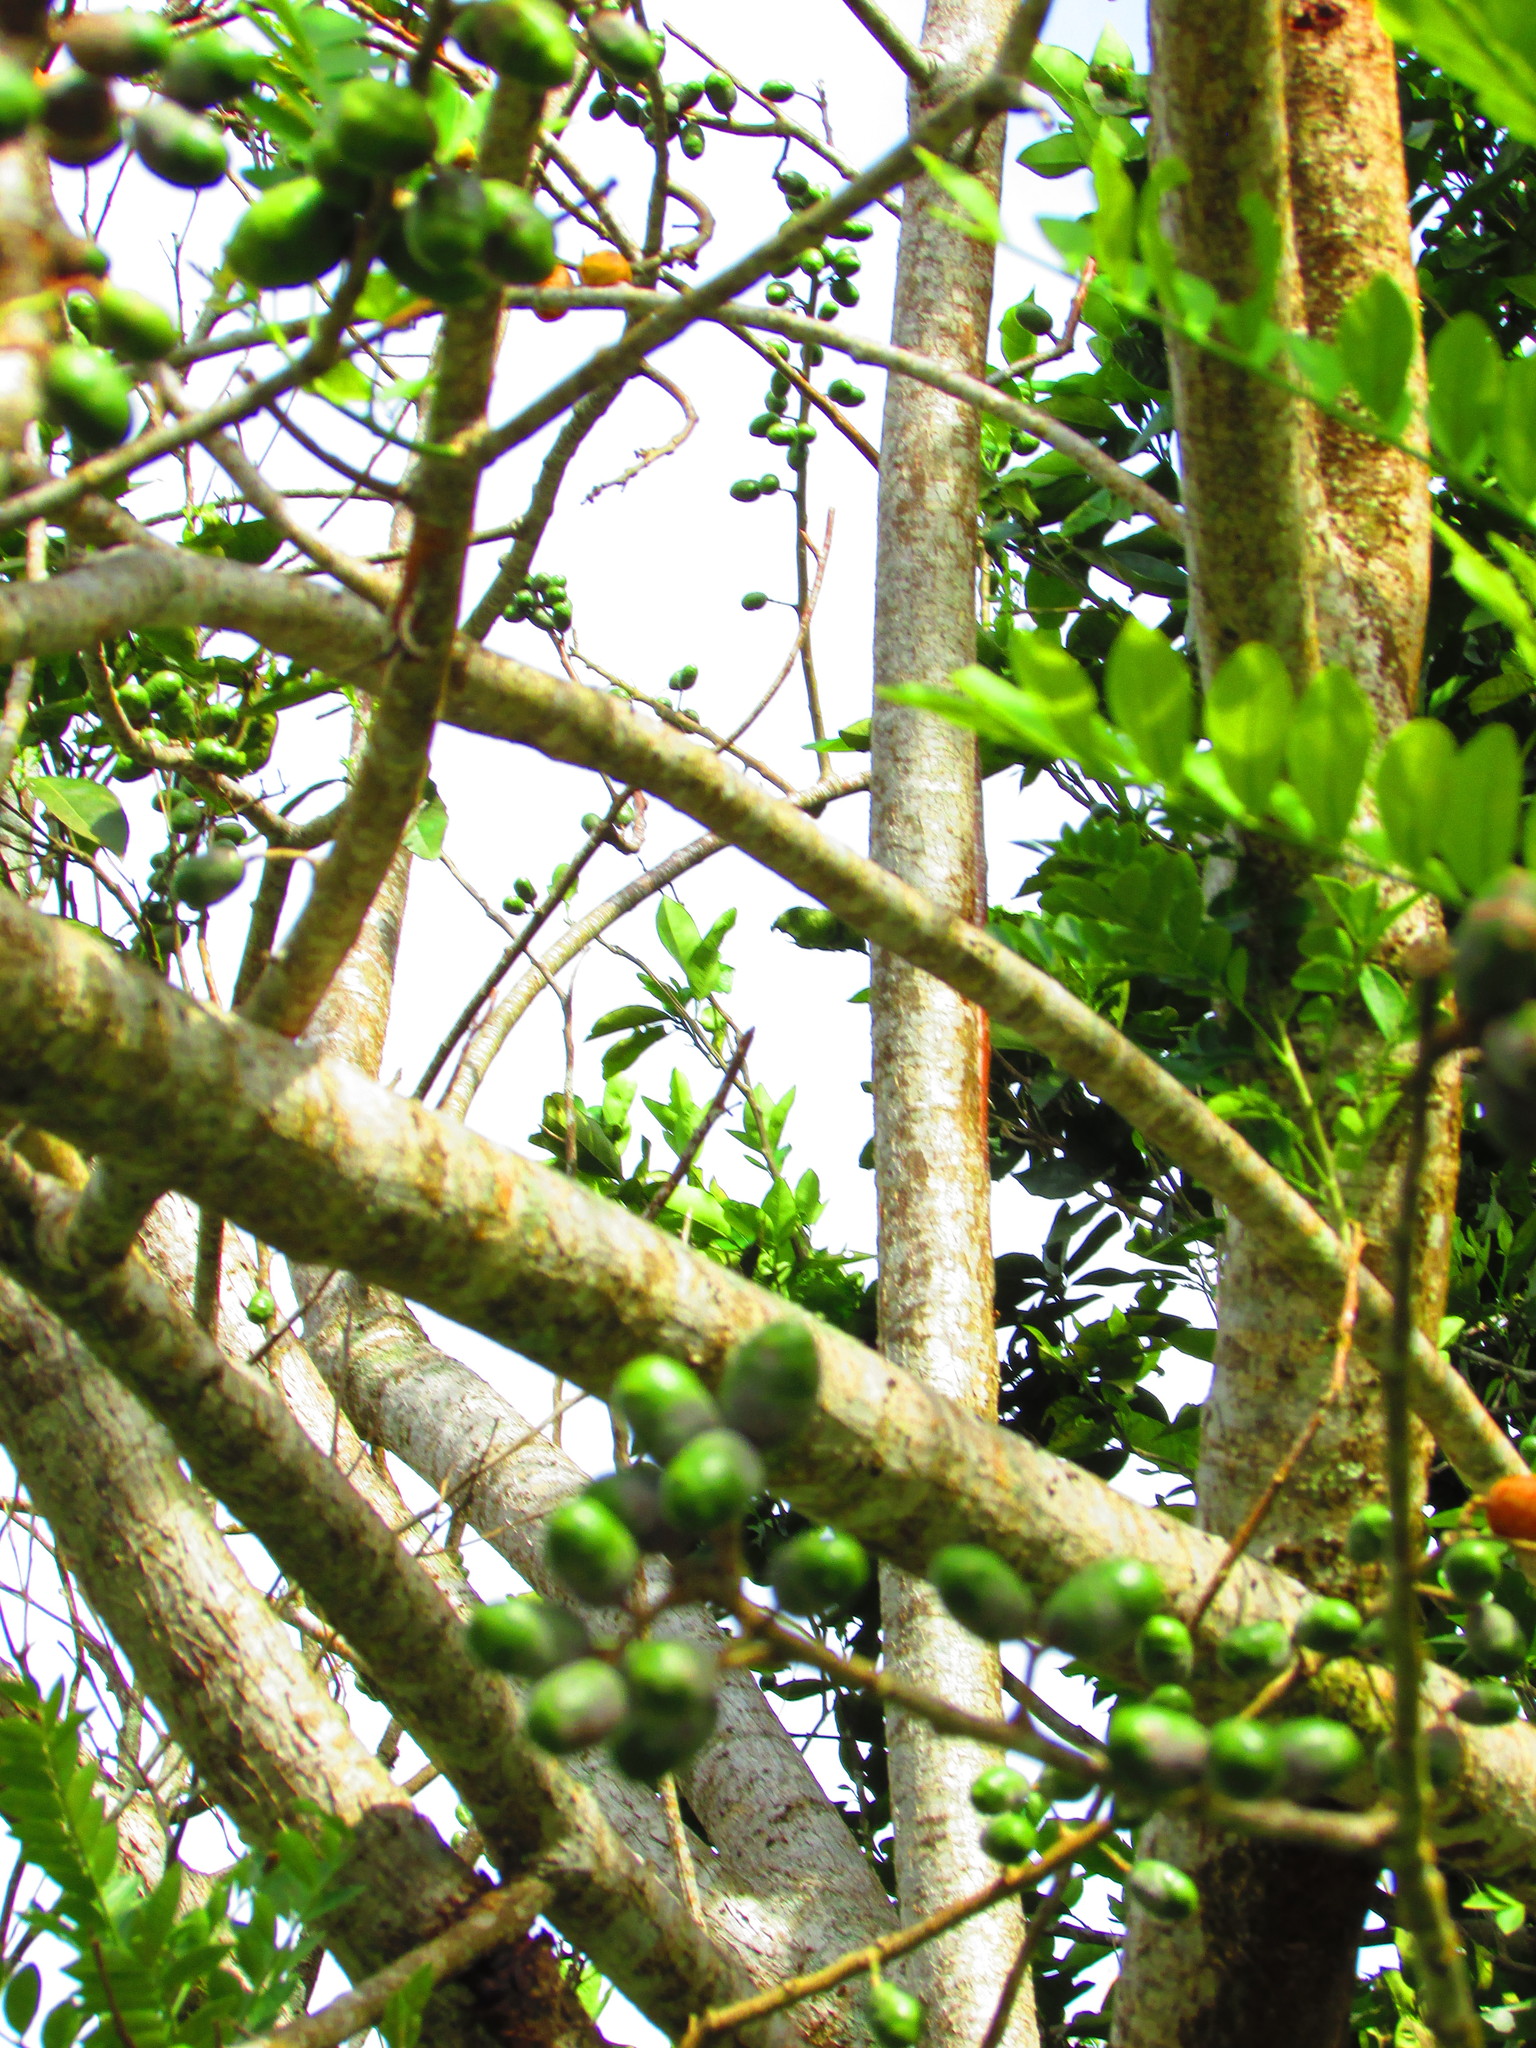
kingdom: Plantae
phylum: Tracheophyta
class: Magnoliopsida
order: Sapindales
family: Anacardiaceae
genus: Spondias
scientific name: Spondias purpurea
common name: Purple mombin
